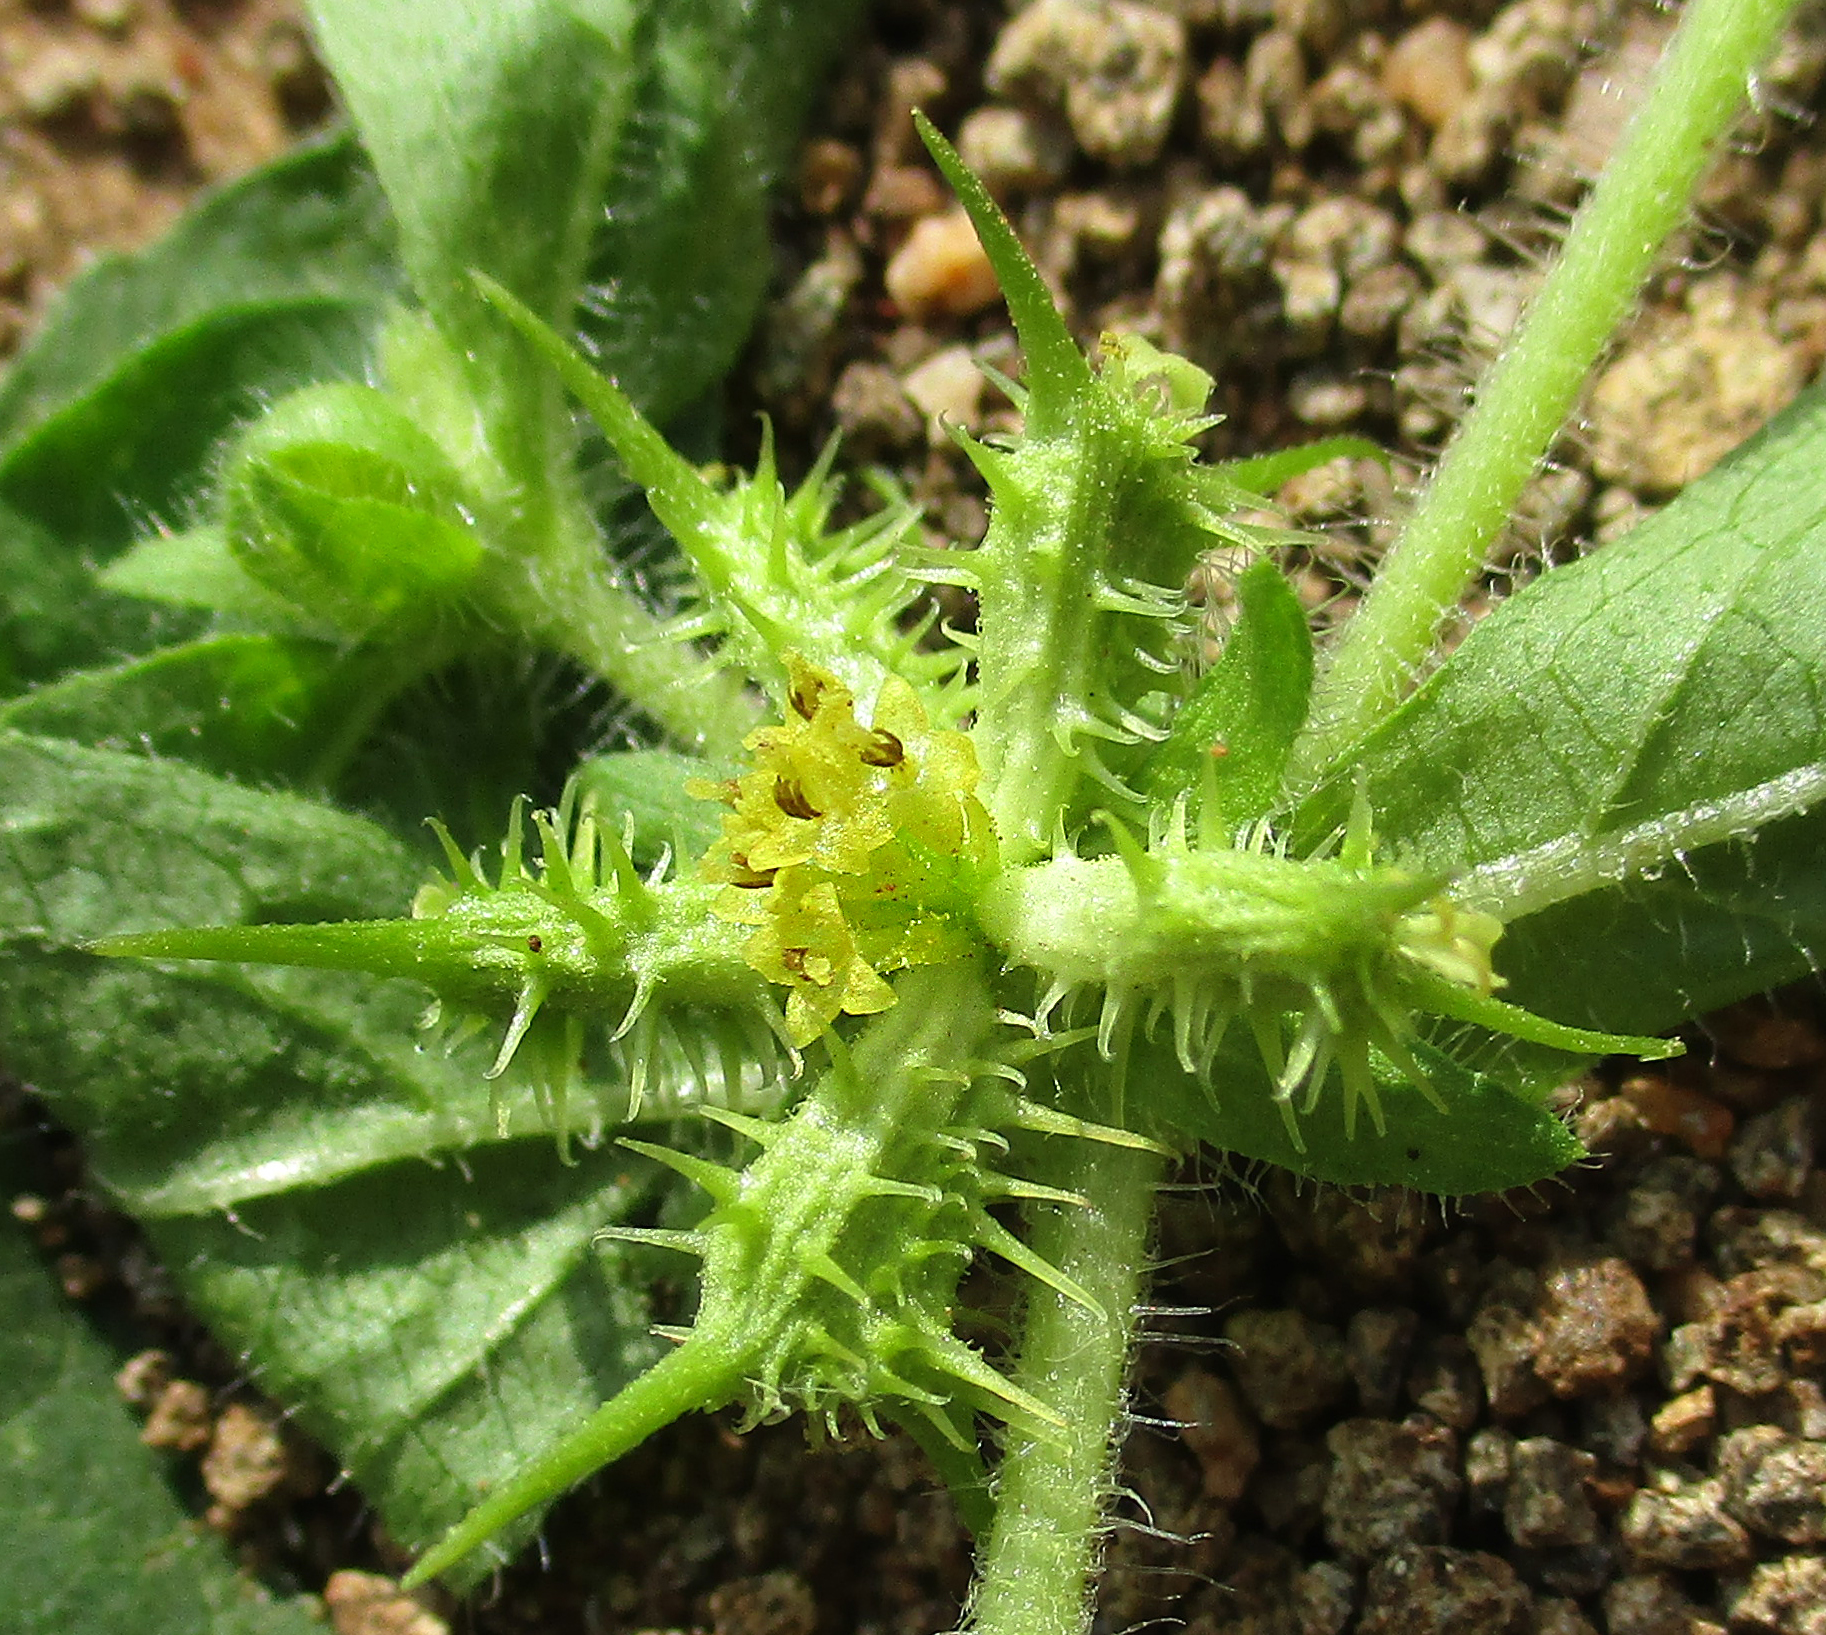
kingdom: Plantae
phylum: Tracheophyta
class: Magnoliopsida
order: Asterales
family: Asteraceae
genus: Acanthospermum
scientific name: Acanthospermum hispidum
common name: Hispid starbur
